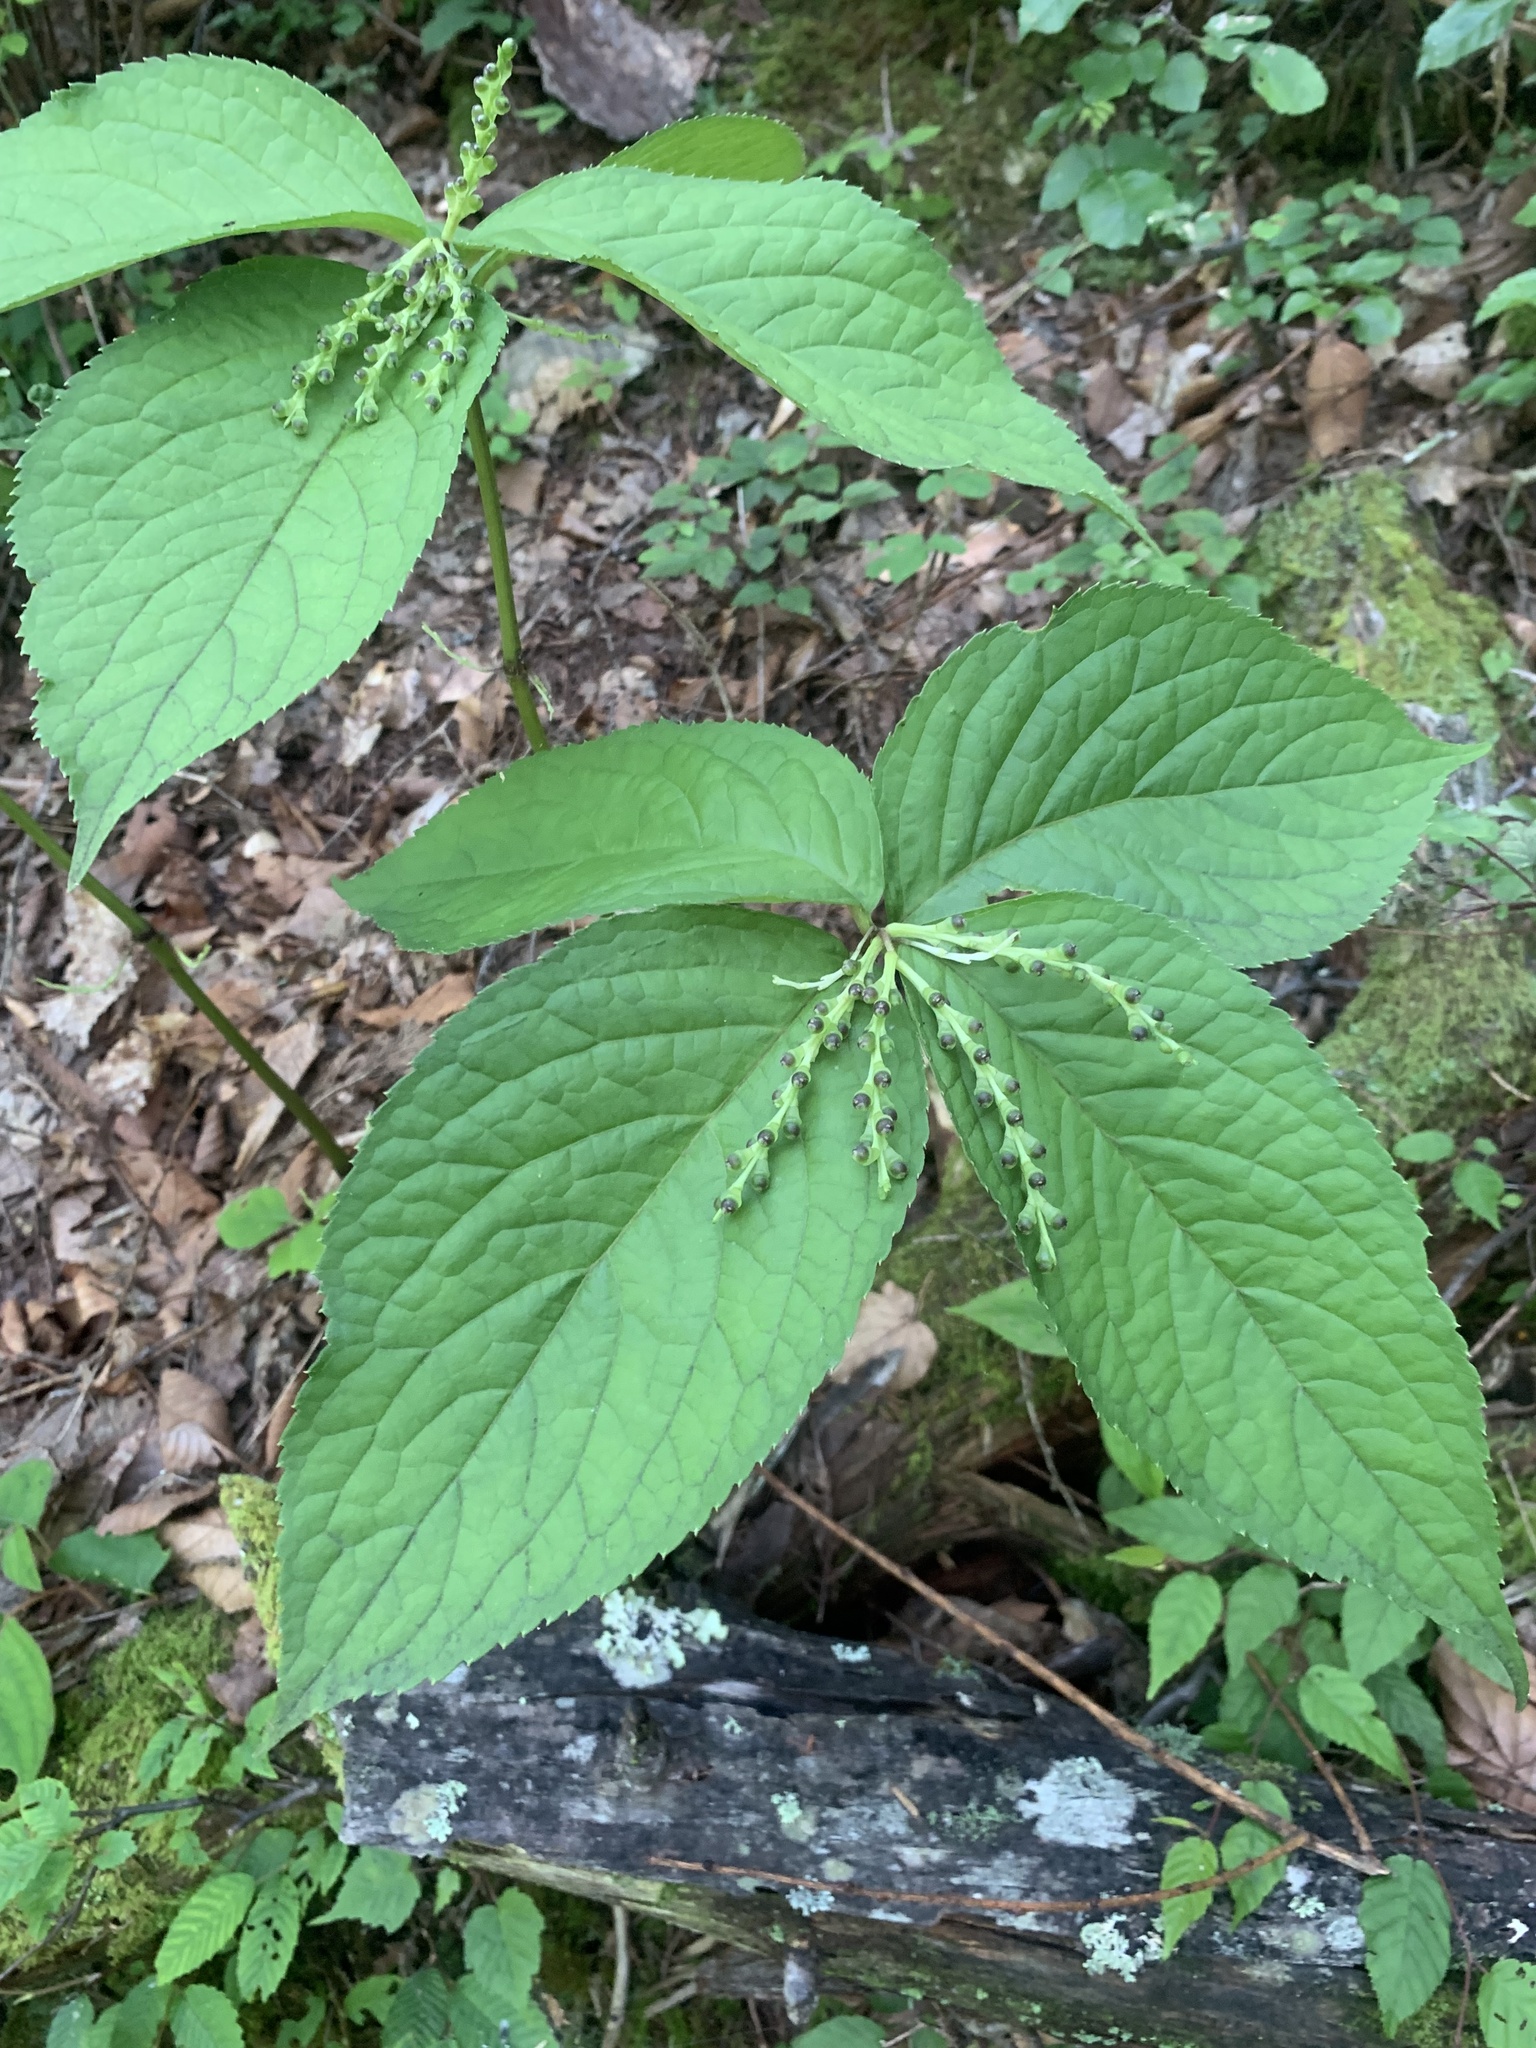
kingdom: Plantae
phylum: Tracheophyta
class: Magnoliopsida
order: Chloranthales
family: Chloranthaceae
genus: Chloranthus
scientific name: Chloranthus serratus
